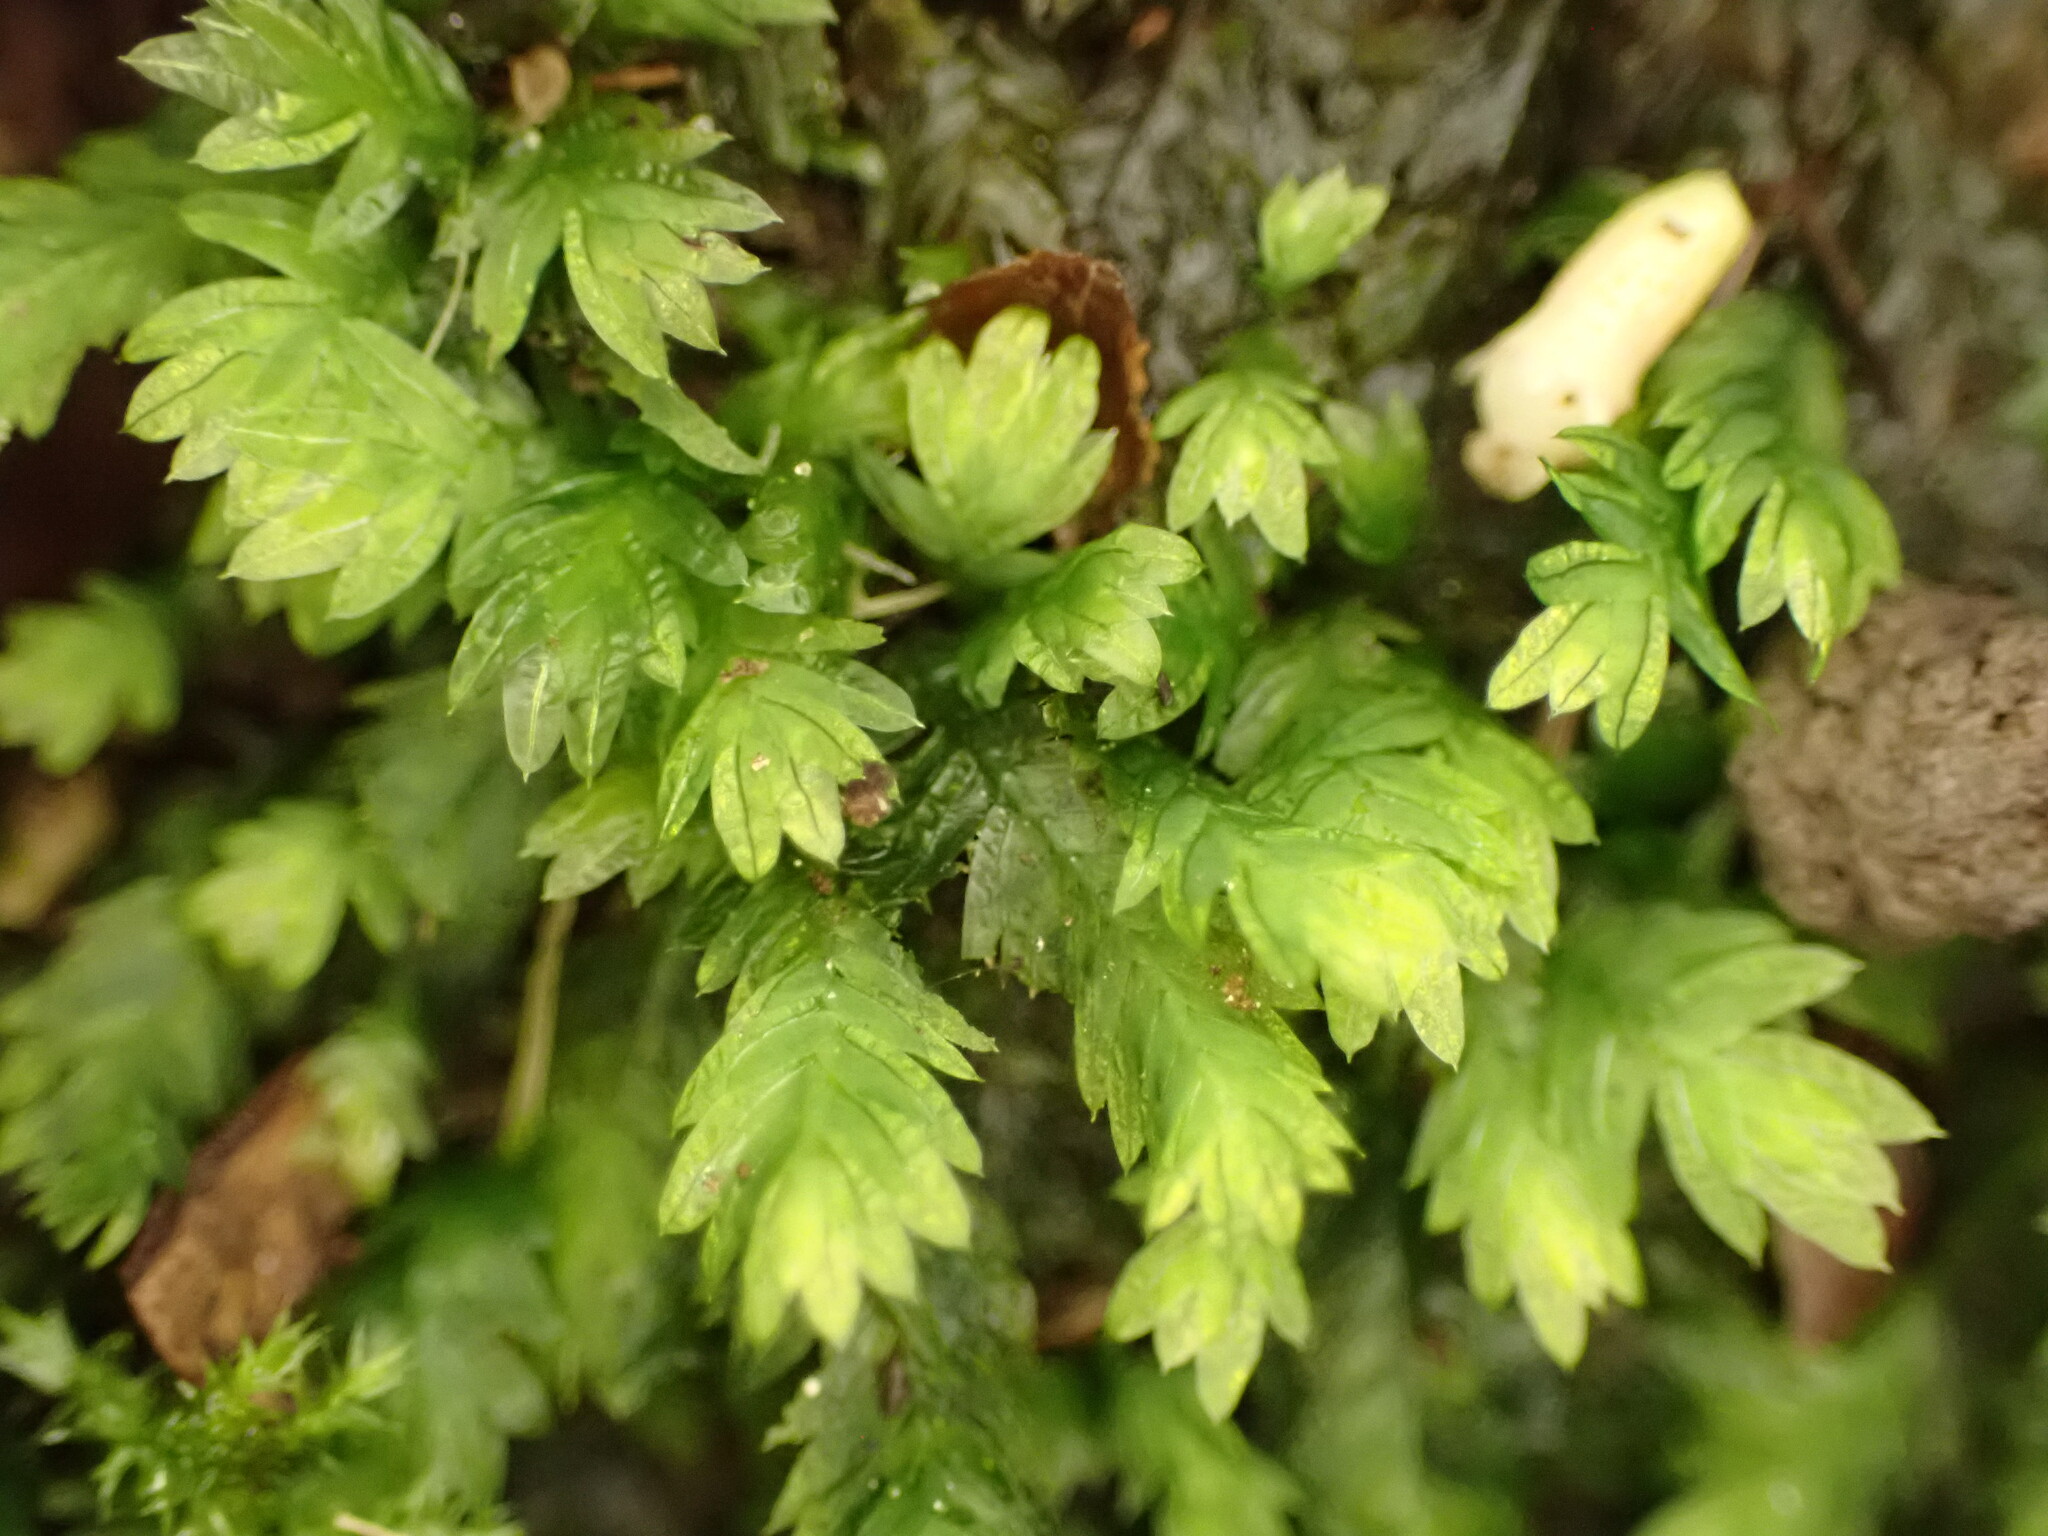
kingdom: Plantae
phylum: Bryophyta
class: Bryopsida
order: Dicranales
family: Fissidentaceae
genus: Fissidens
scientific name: Fissidens taxifolius
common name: Yew-leaved pocket moss
